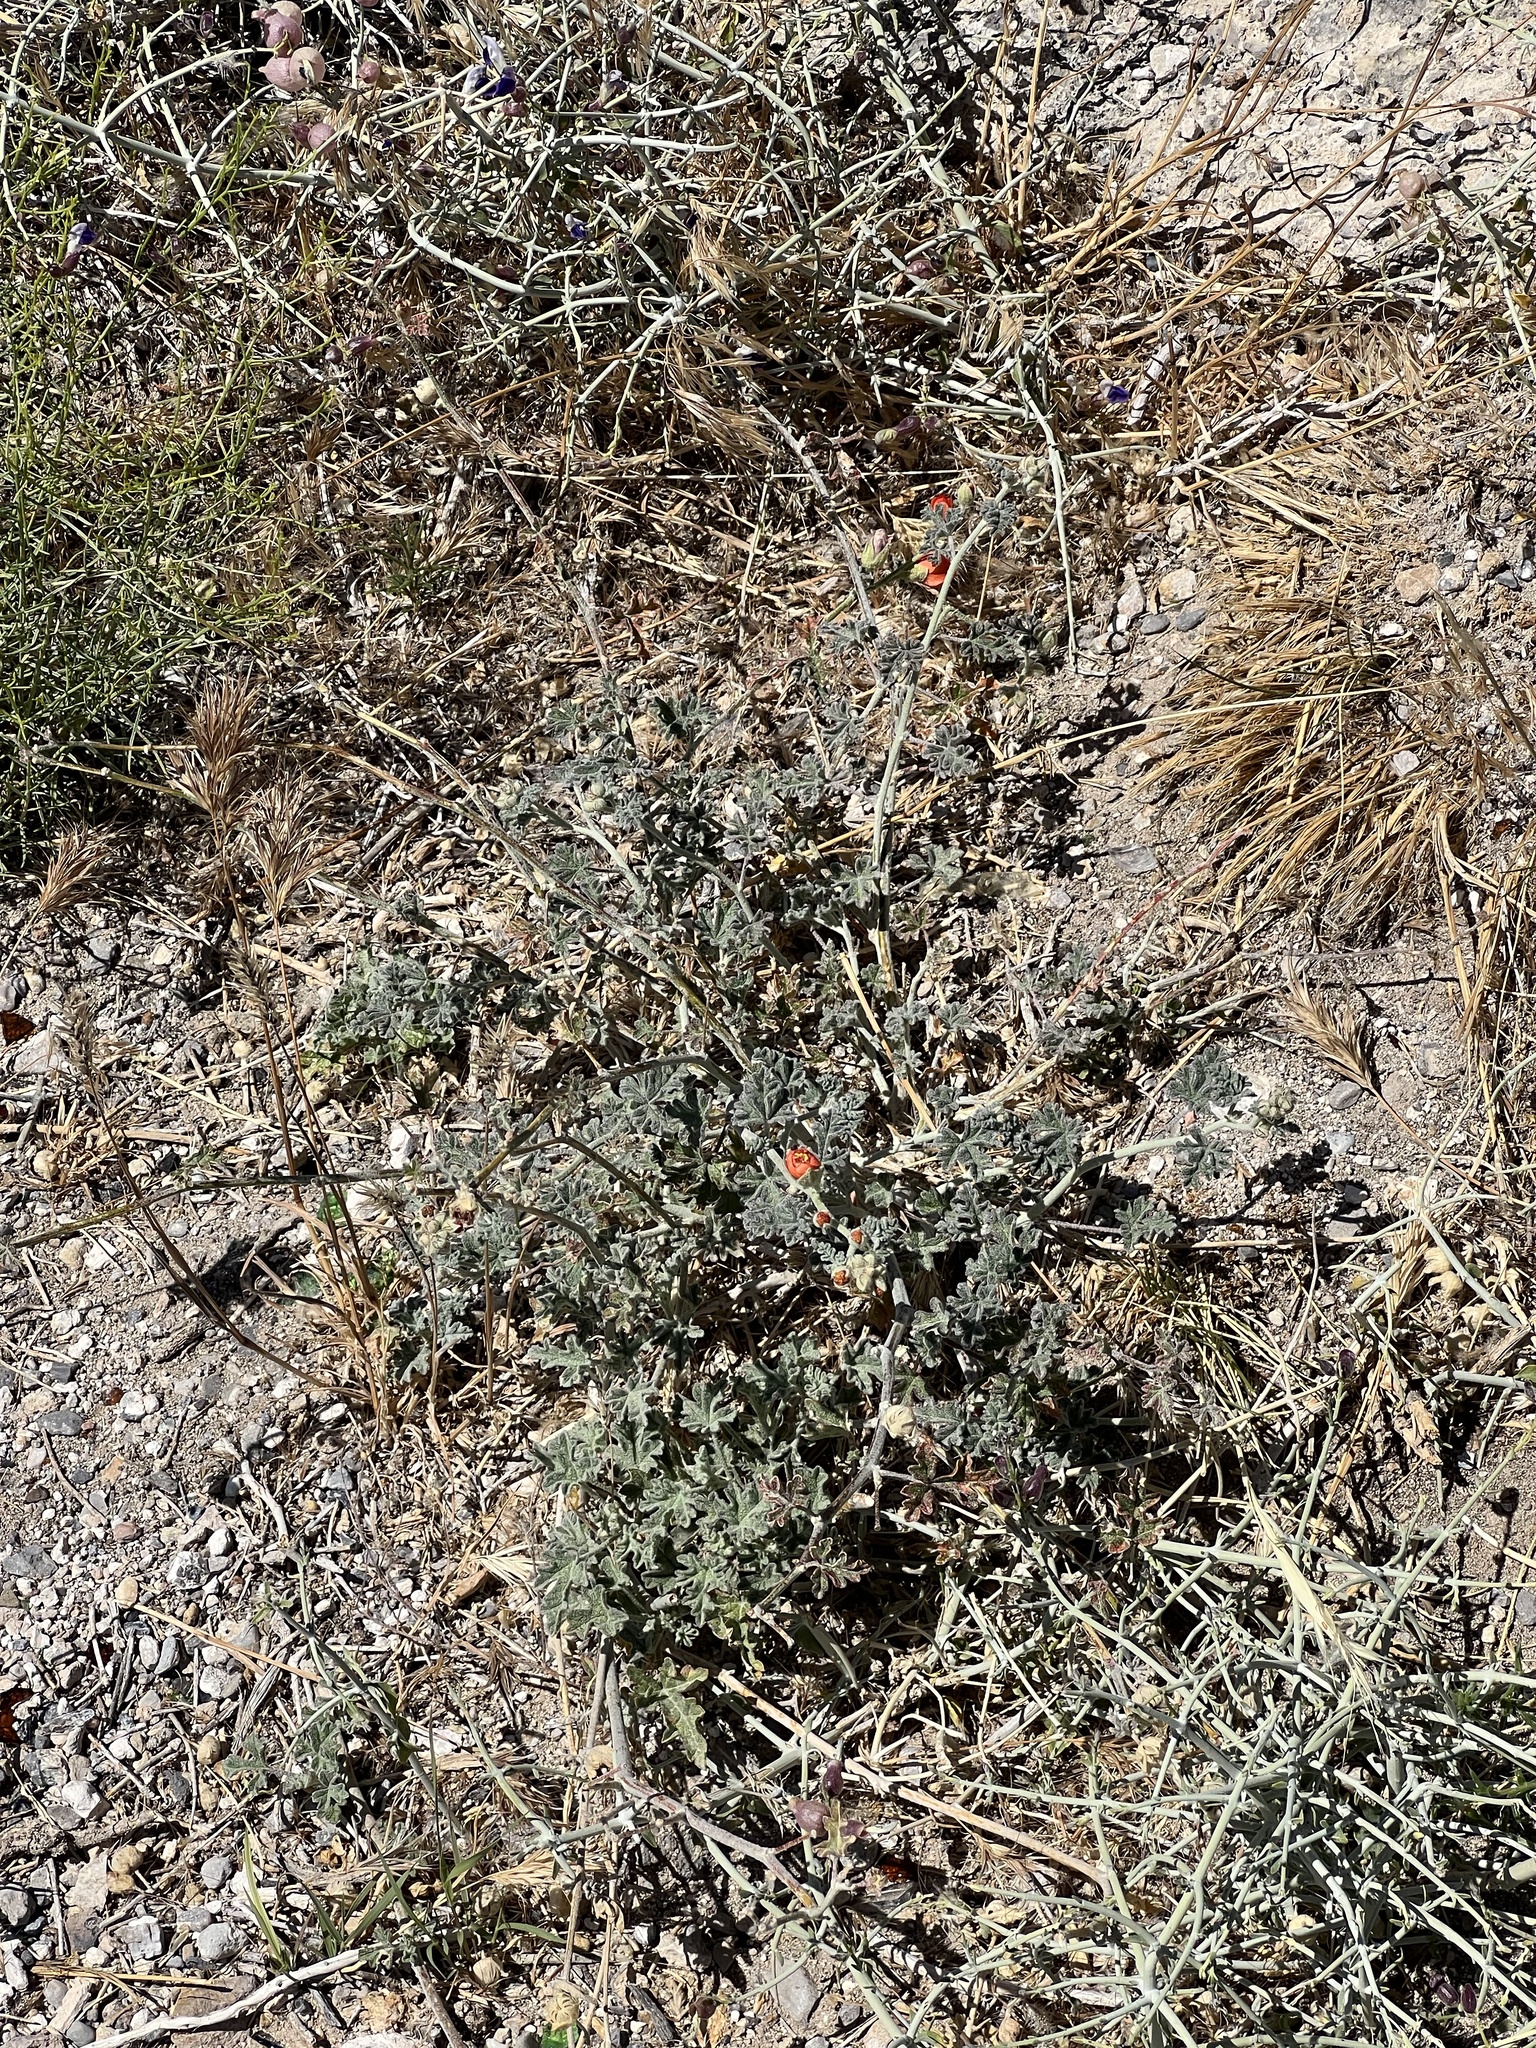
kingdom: Plantae
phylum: Tracheophyta
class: Magnoliopsida
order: Malvales
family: Malvaceae
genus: Sphaeralcea
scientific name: Sphaeralcea ambigua
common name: Apricot globe-mallow
